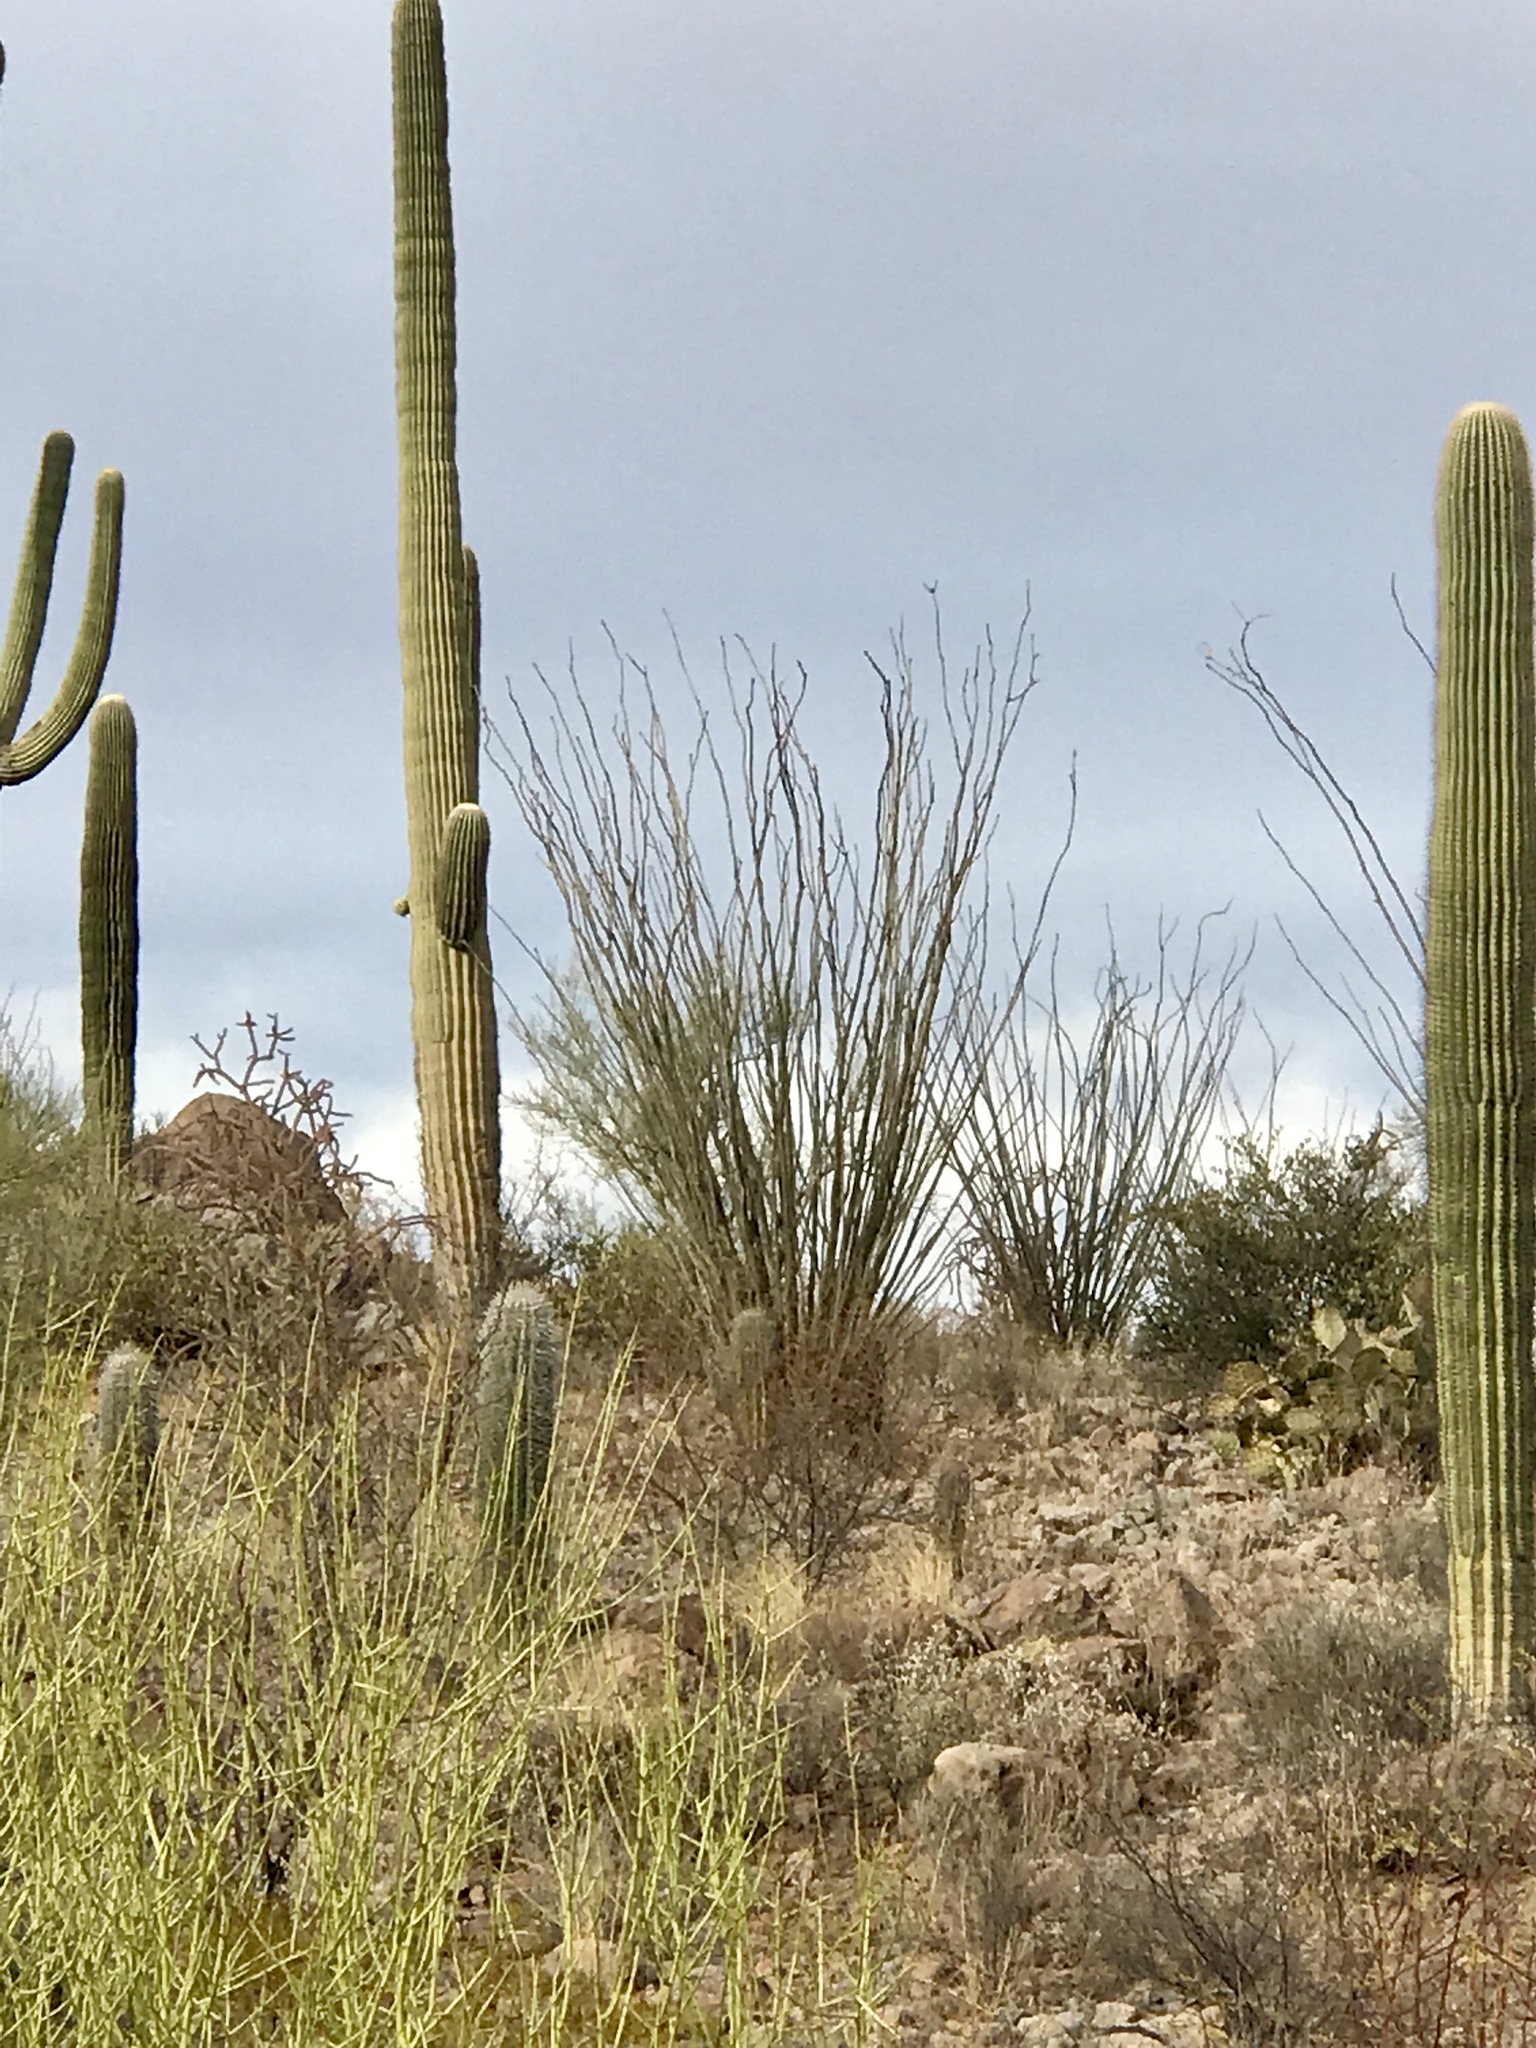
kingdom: Plantae
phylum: Tracheophyta
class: Magnoliopsida
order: Ericales
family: Fouquieriaceae
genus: Fouquieria
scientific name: Fouquieria splendens
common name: Vine-cactus
